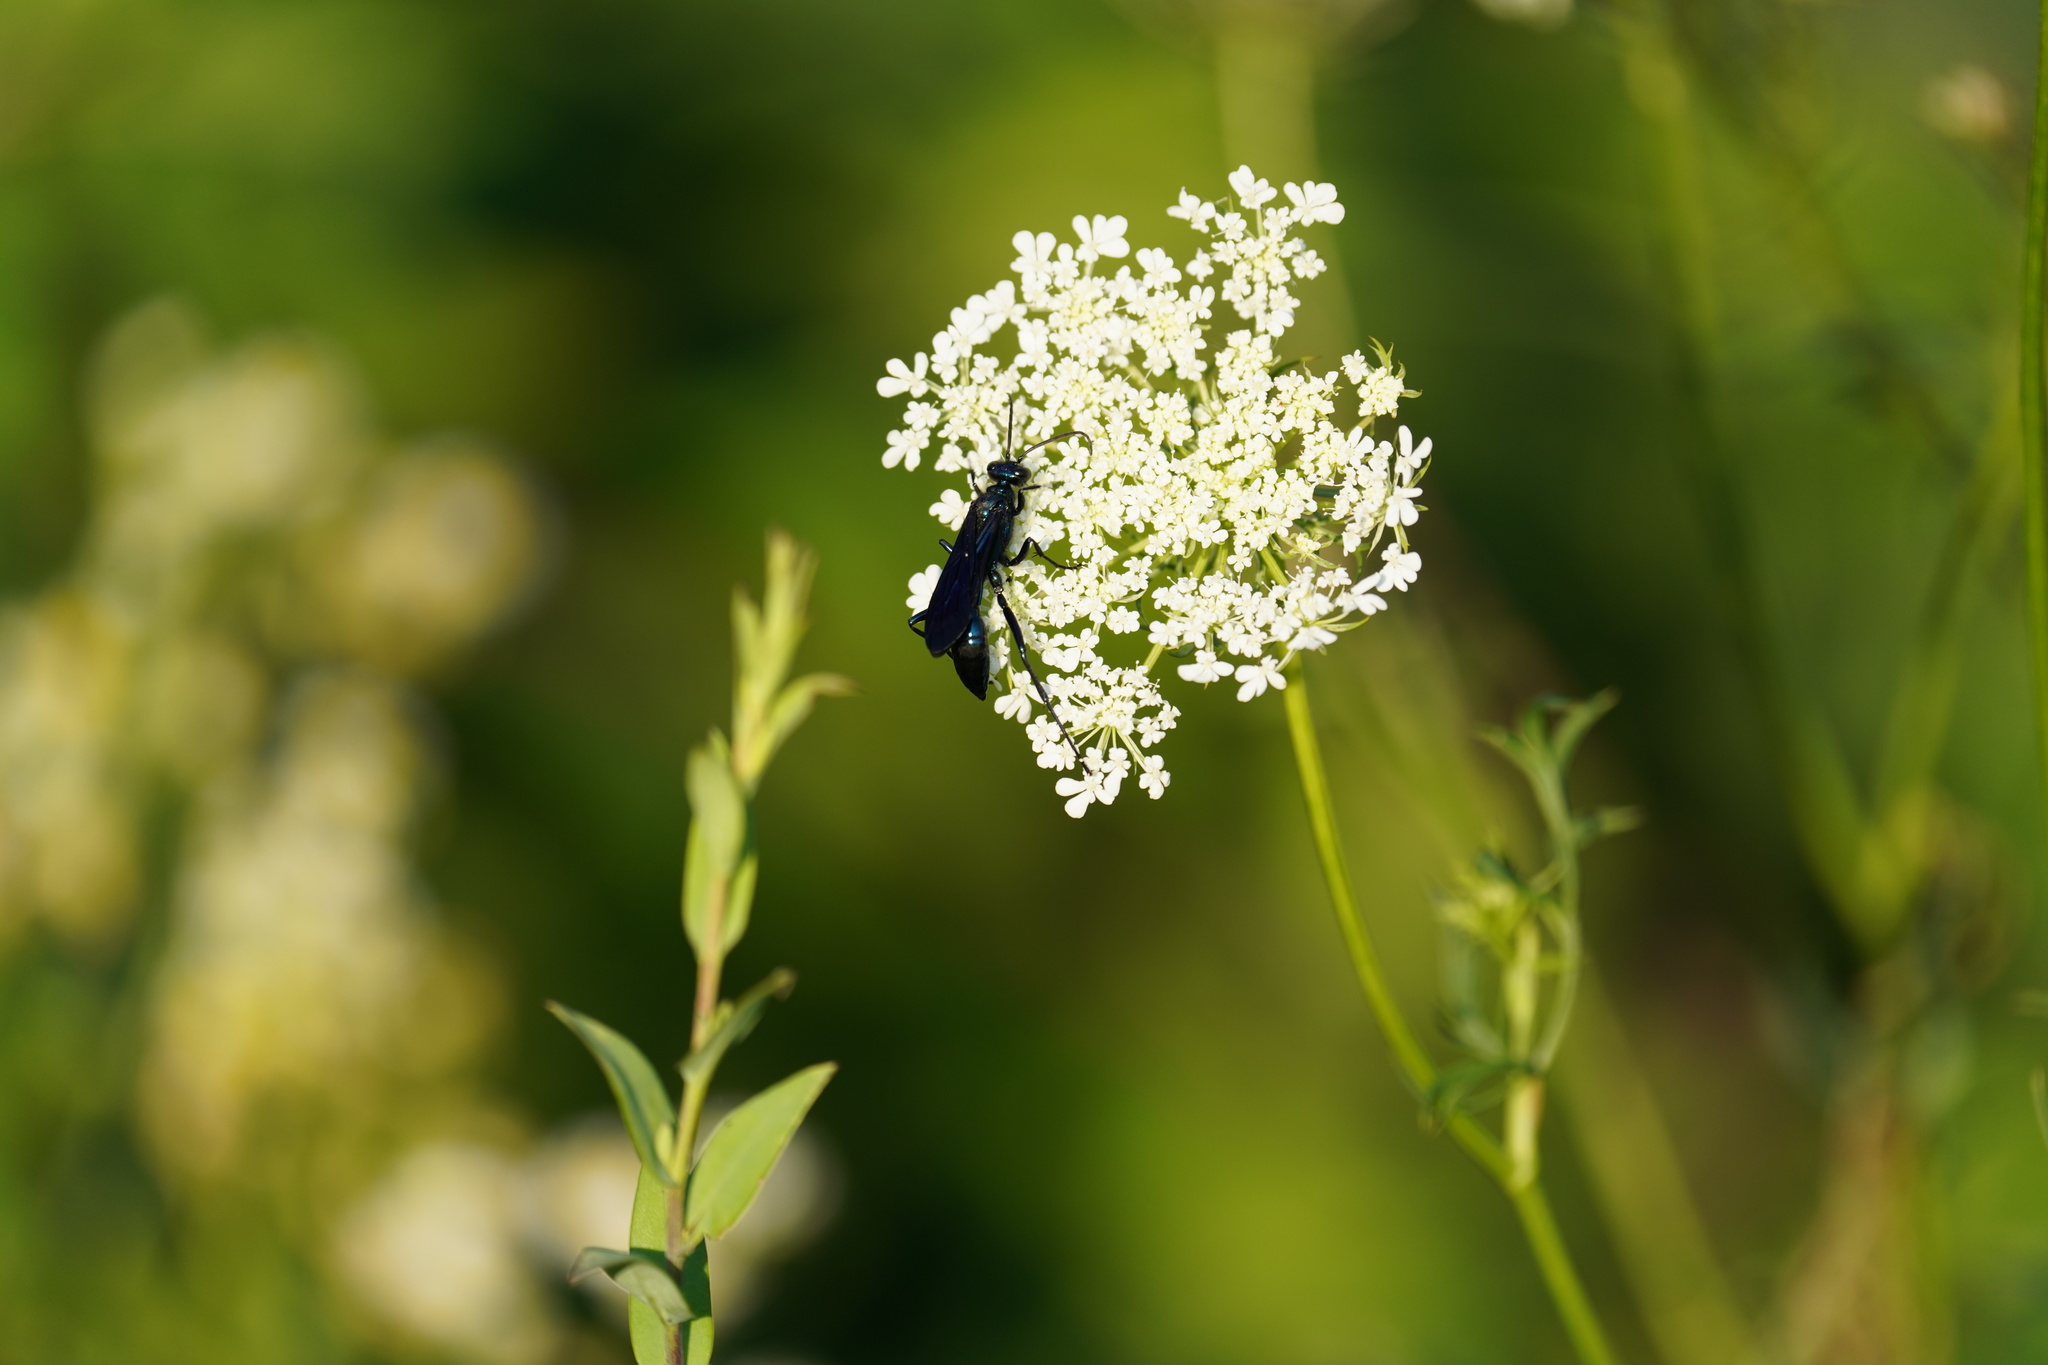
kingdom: Animalia
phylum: Arthropoda
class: Insecta
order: Hymenoptera
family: Sphecidae
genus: Chalybion
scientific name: Chalybion californicum
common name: Mud dauber
